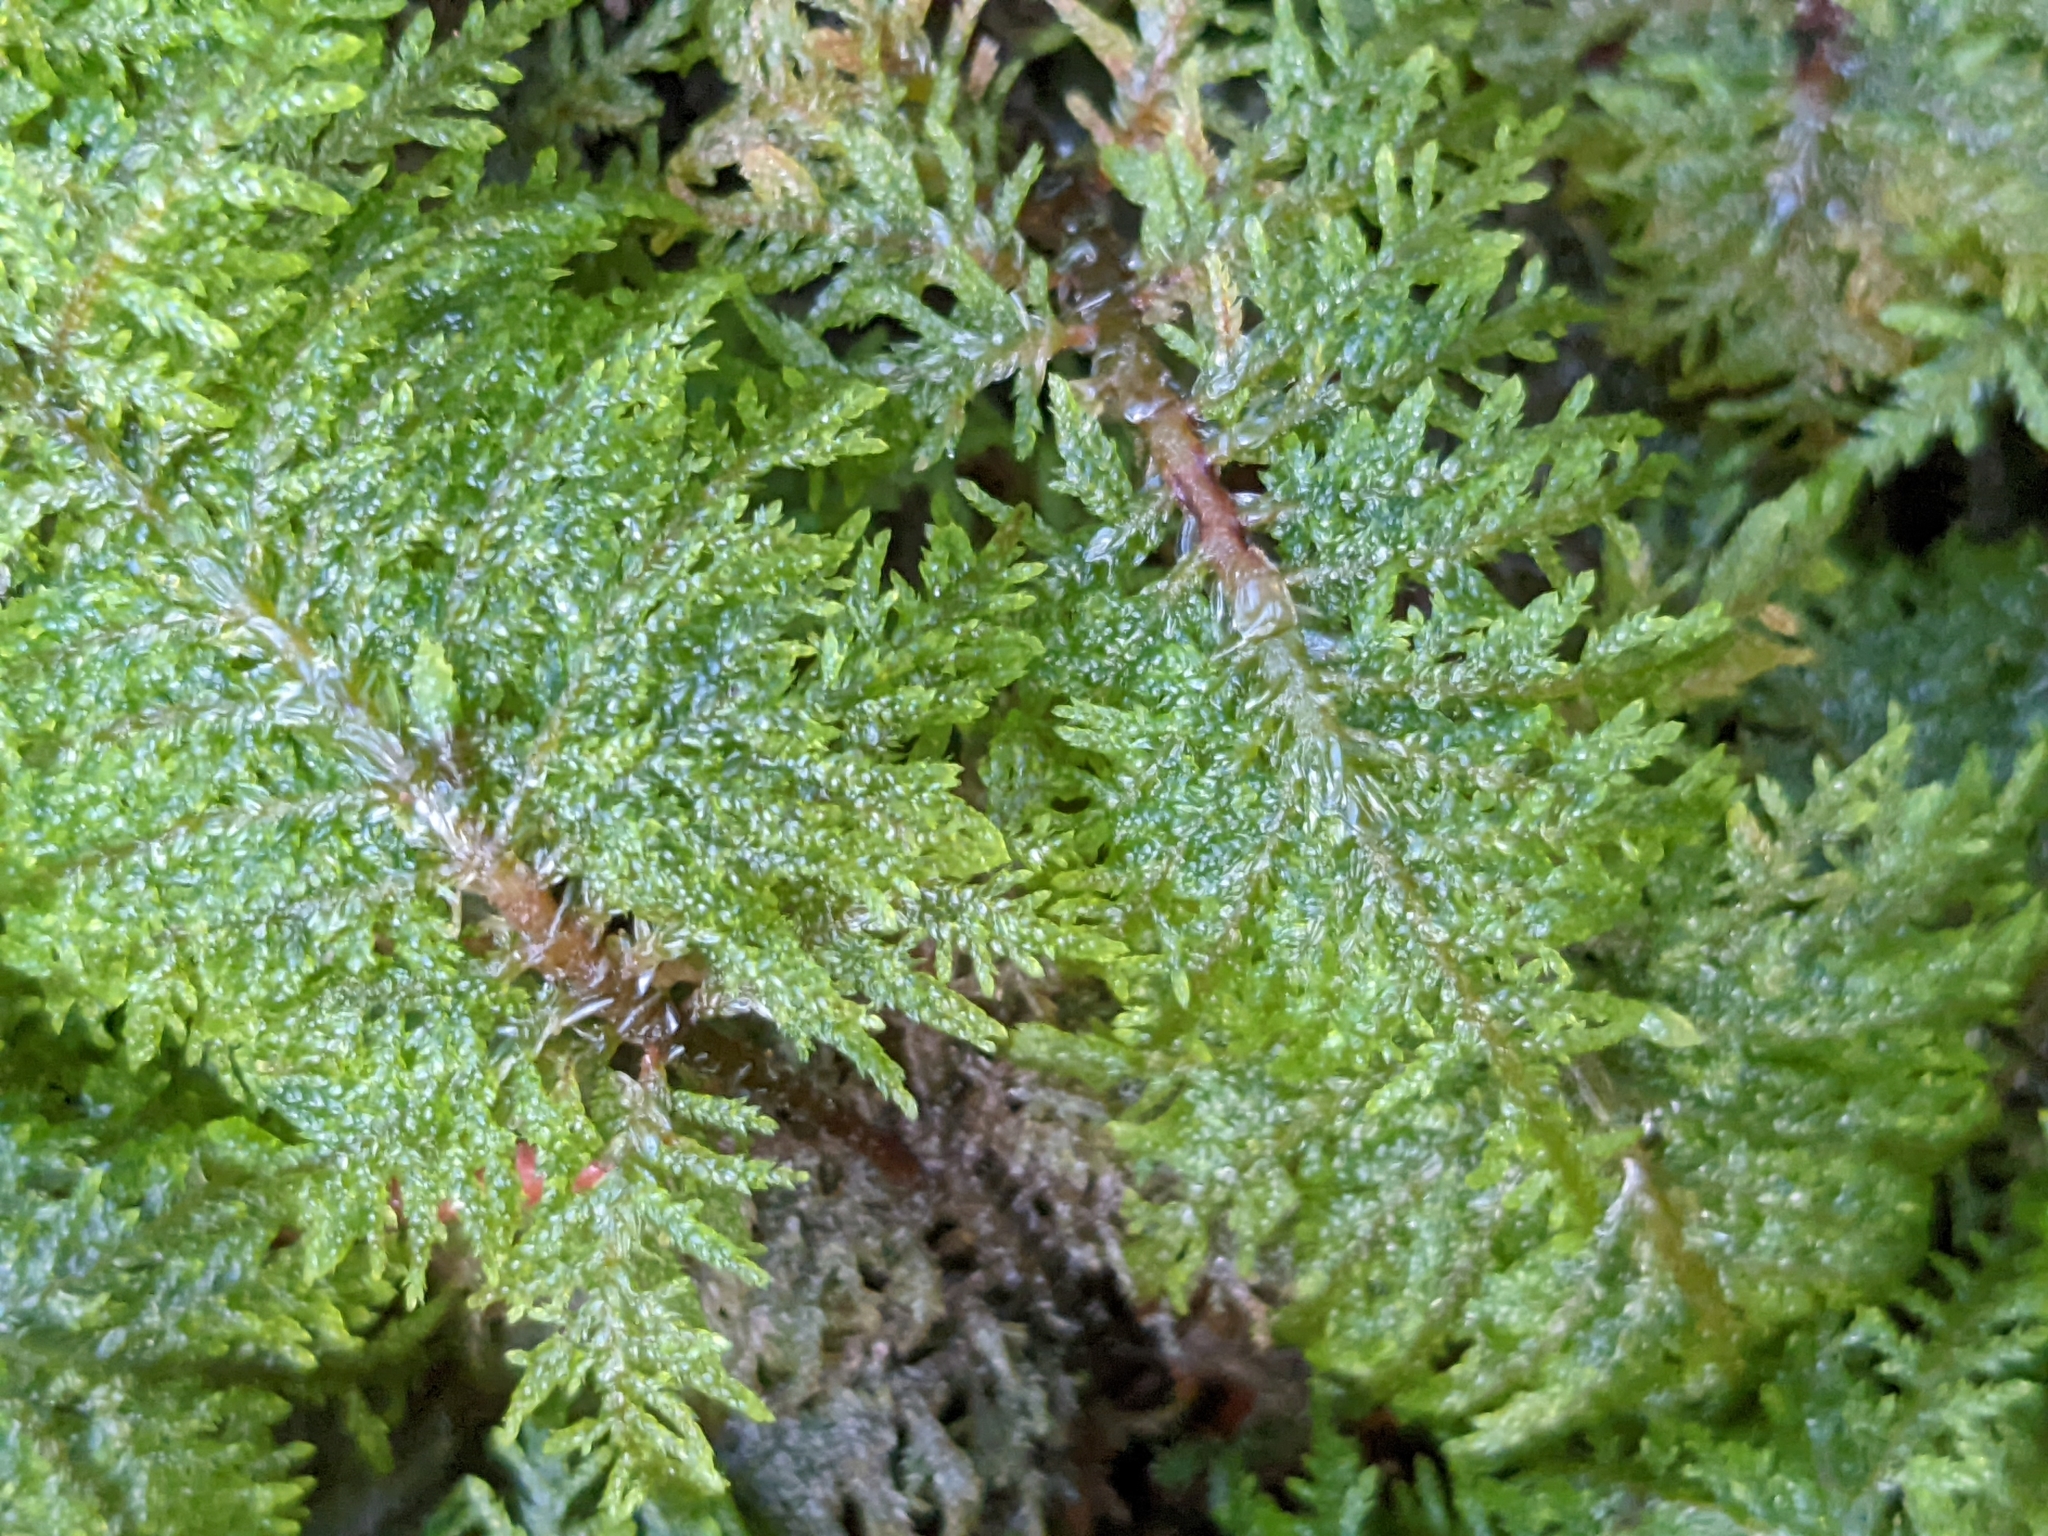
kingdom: Plantae
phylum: Bryophyta
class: Bryopsida
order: Hypnales
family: Hylocomiaceae
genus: Hylocomium
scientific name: Hylocomium splendens
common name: Stairstep moss
